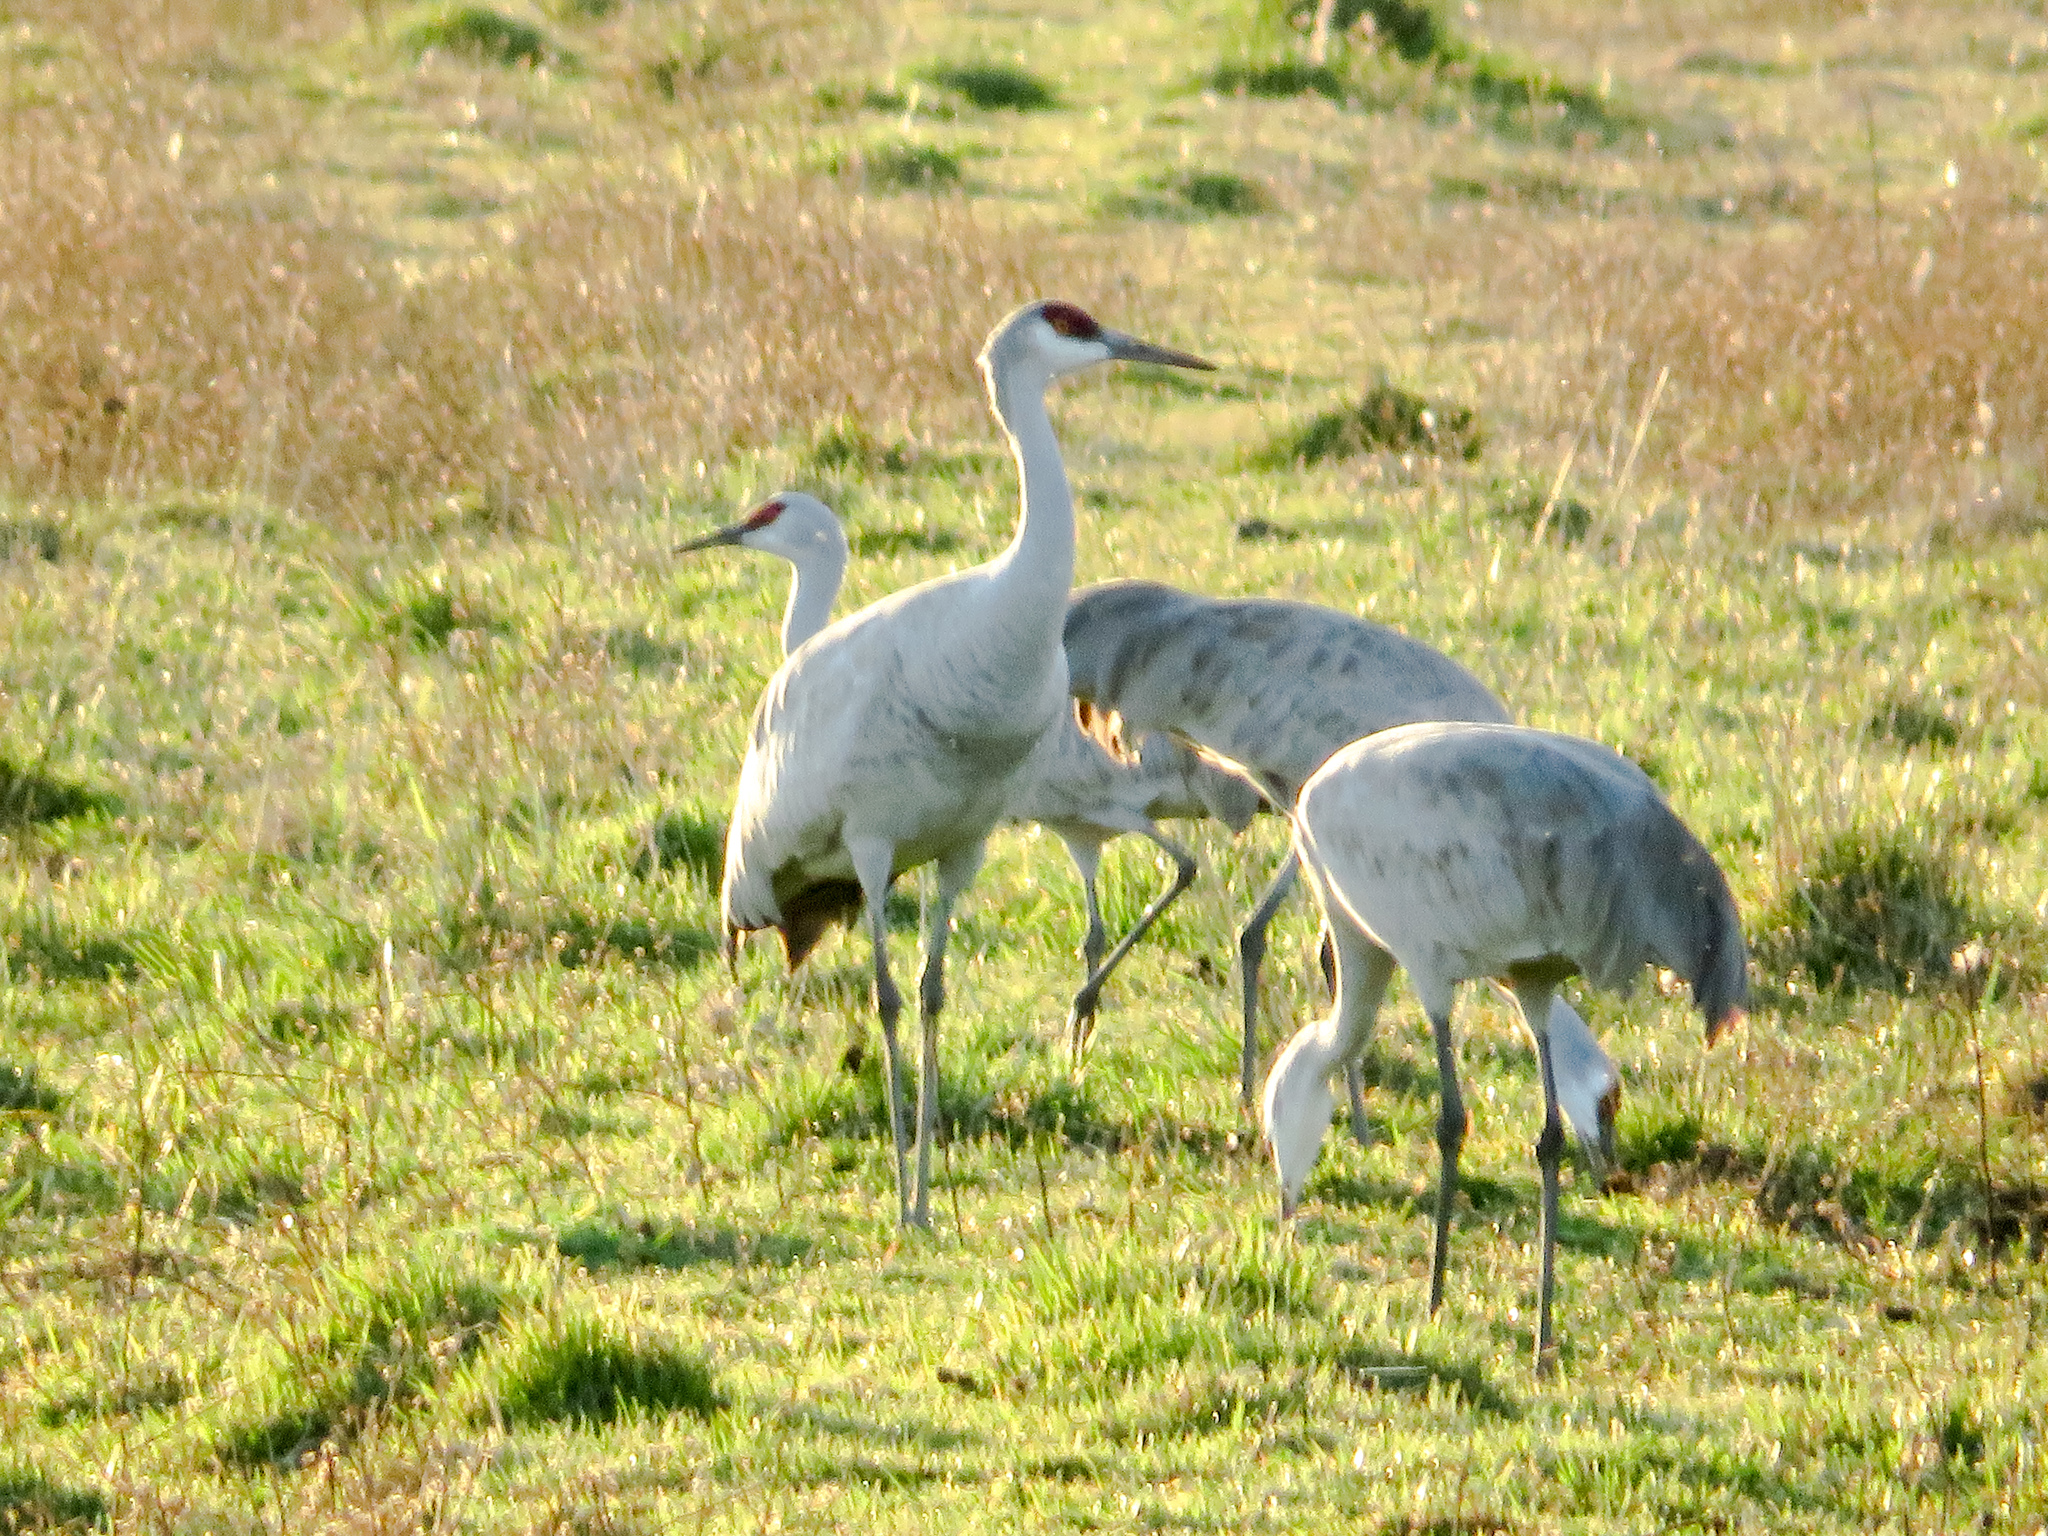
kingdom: Animalia
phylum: Chordata
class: Aves
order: Gruiformes
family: Gruidae
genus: Grus
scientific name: Grus canadensis
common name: Sandhill crane
